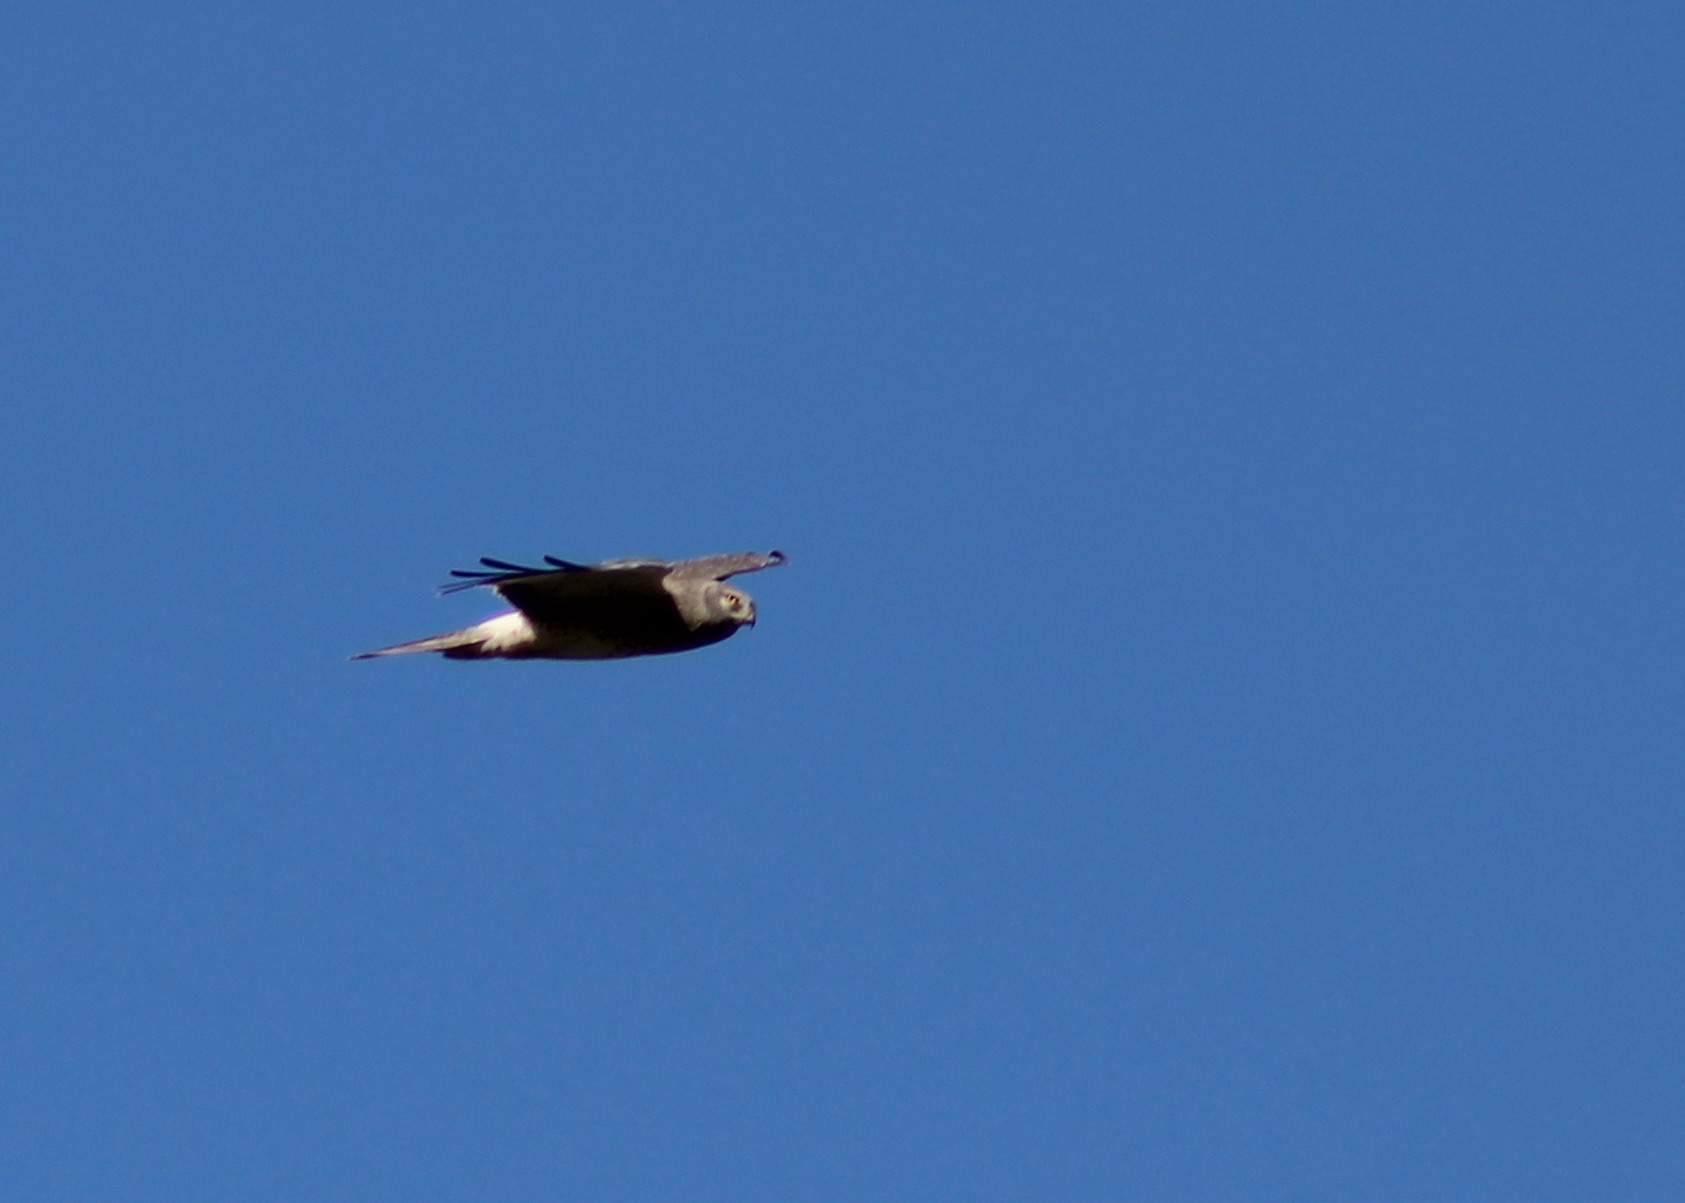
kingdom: Animalia
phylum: Chordata
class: Aves
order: Accipitriformes
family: Accipitridae
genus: Circus
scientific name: Circus cyaneus
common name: Hen harrier
